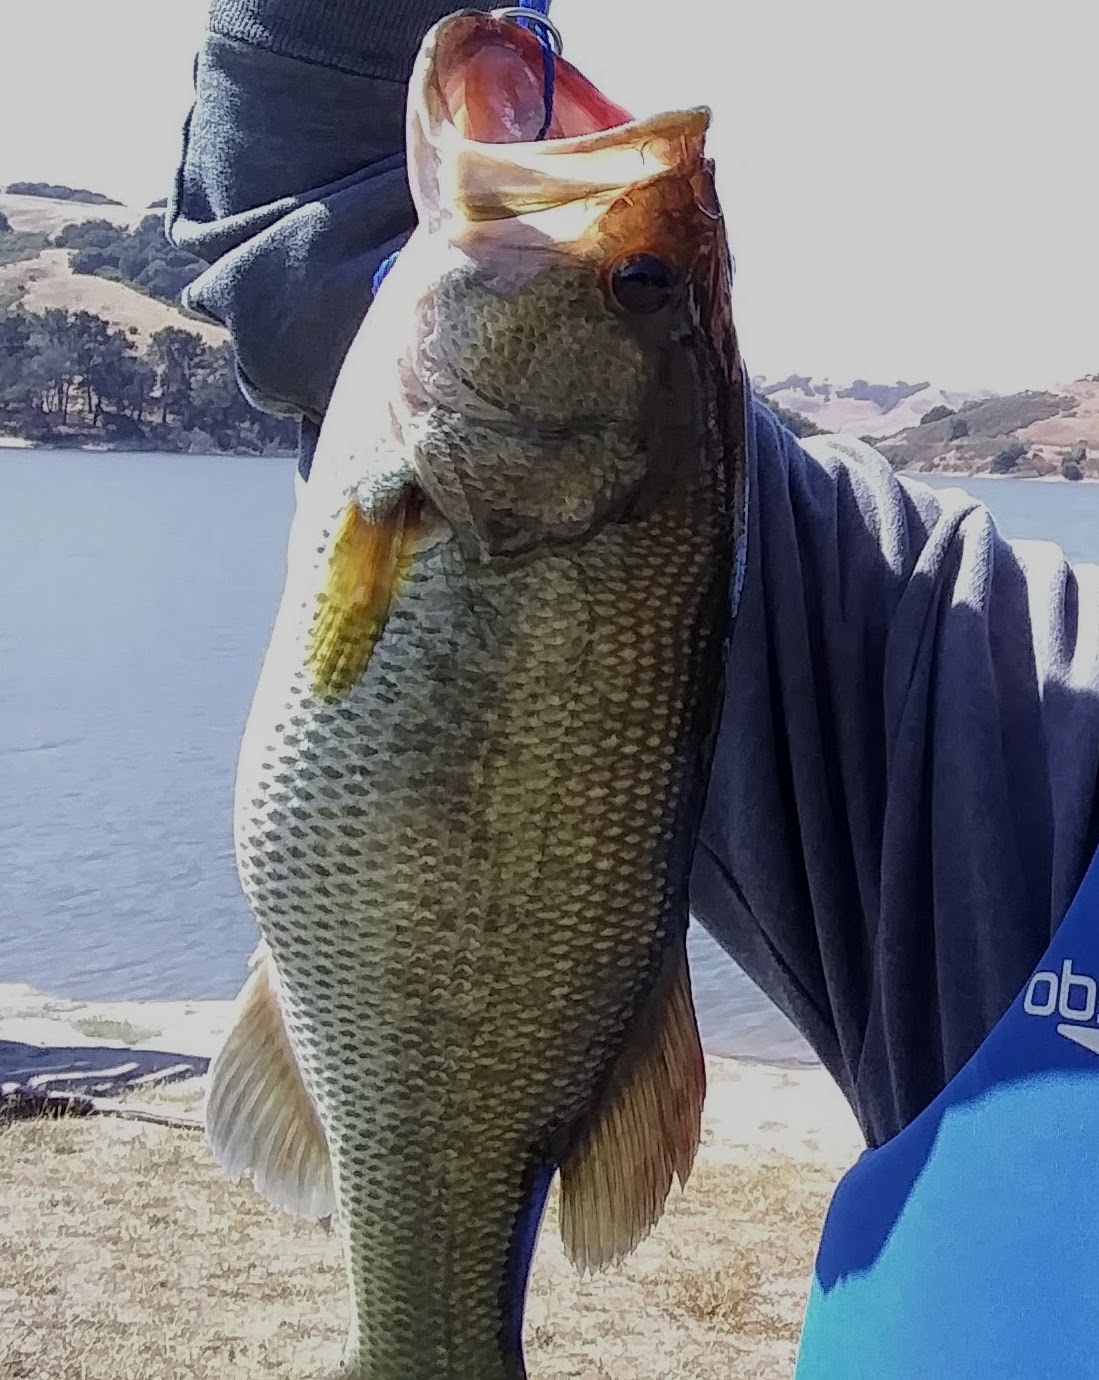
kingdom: Animalia
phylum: Chordata
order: Perciformes
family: Centrarchidae
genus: Micropterus
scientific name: Micropterus
